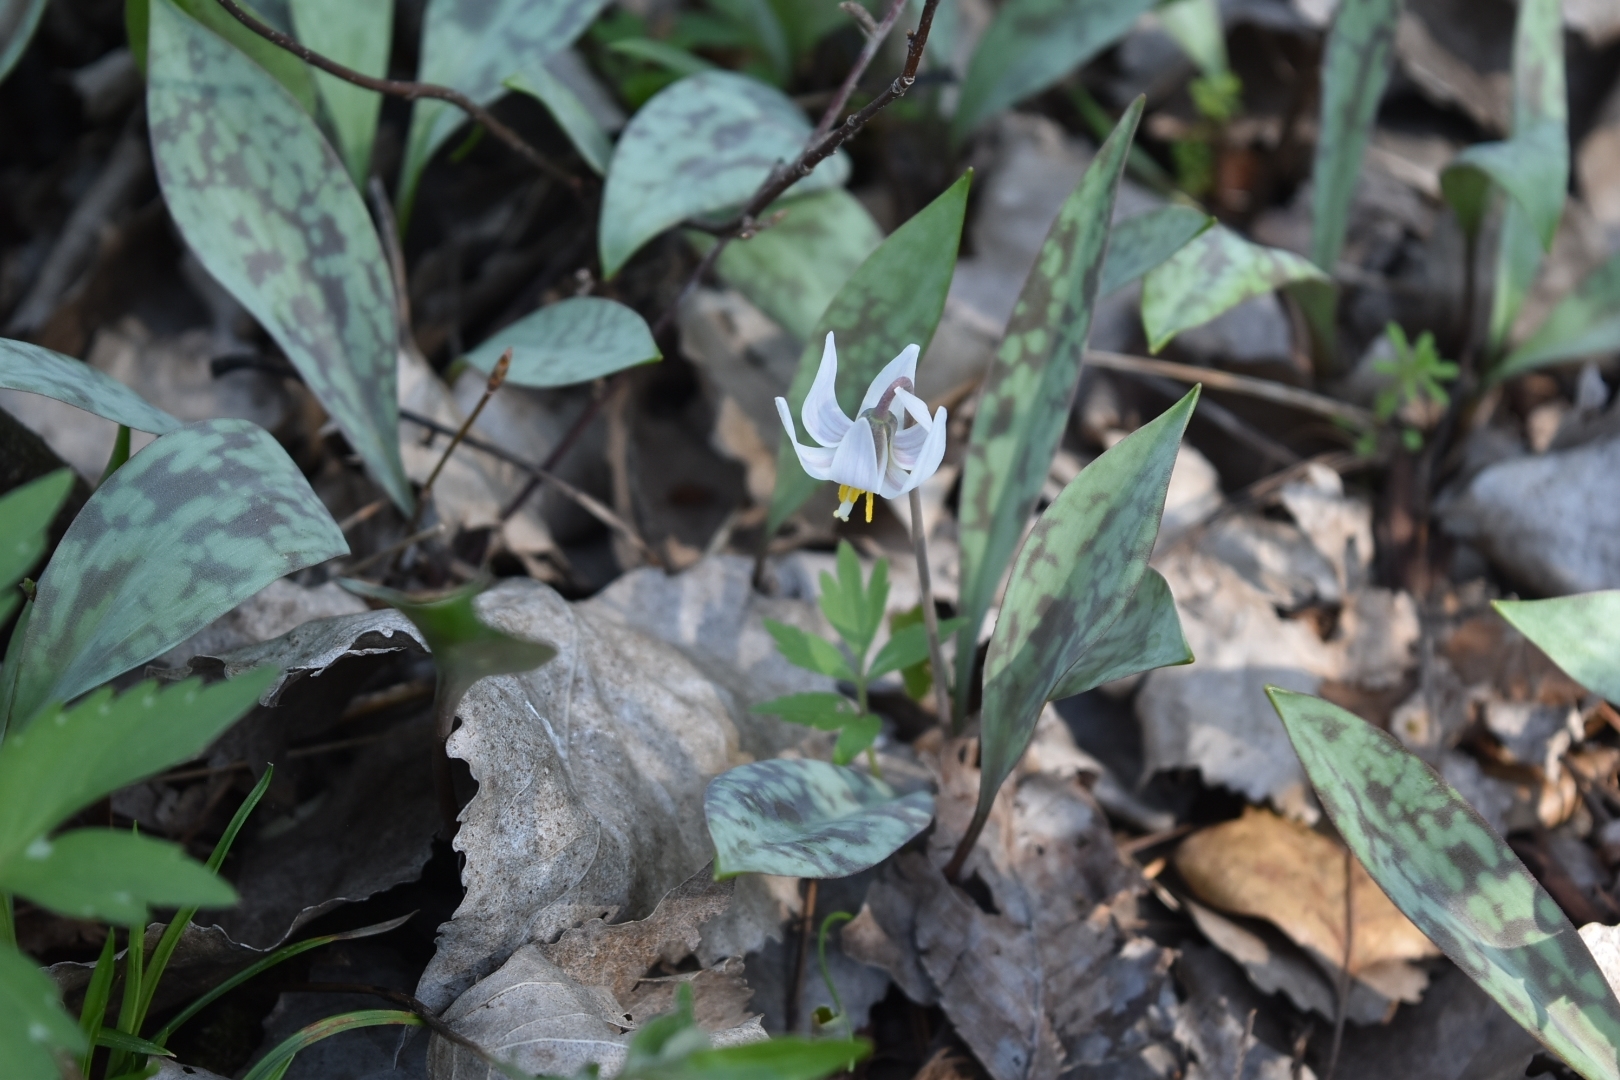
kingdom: Plantae
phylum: Tracheophyta
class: Liliopsida
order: Liliales
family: Liliaceae
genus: Erythronium
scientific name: Erythronium albidum
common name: White trout-lily
